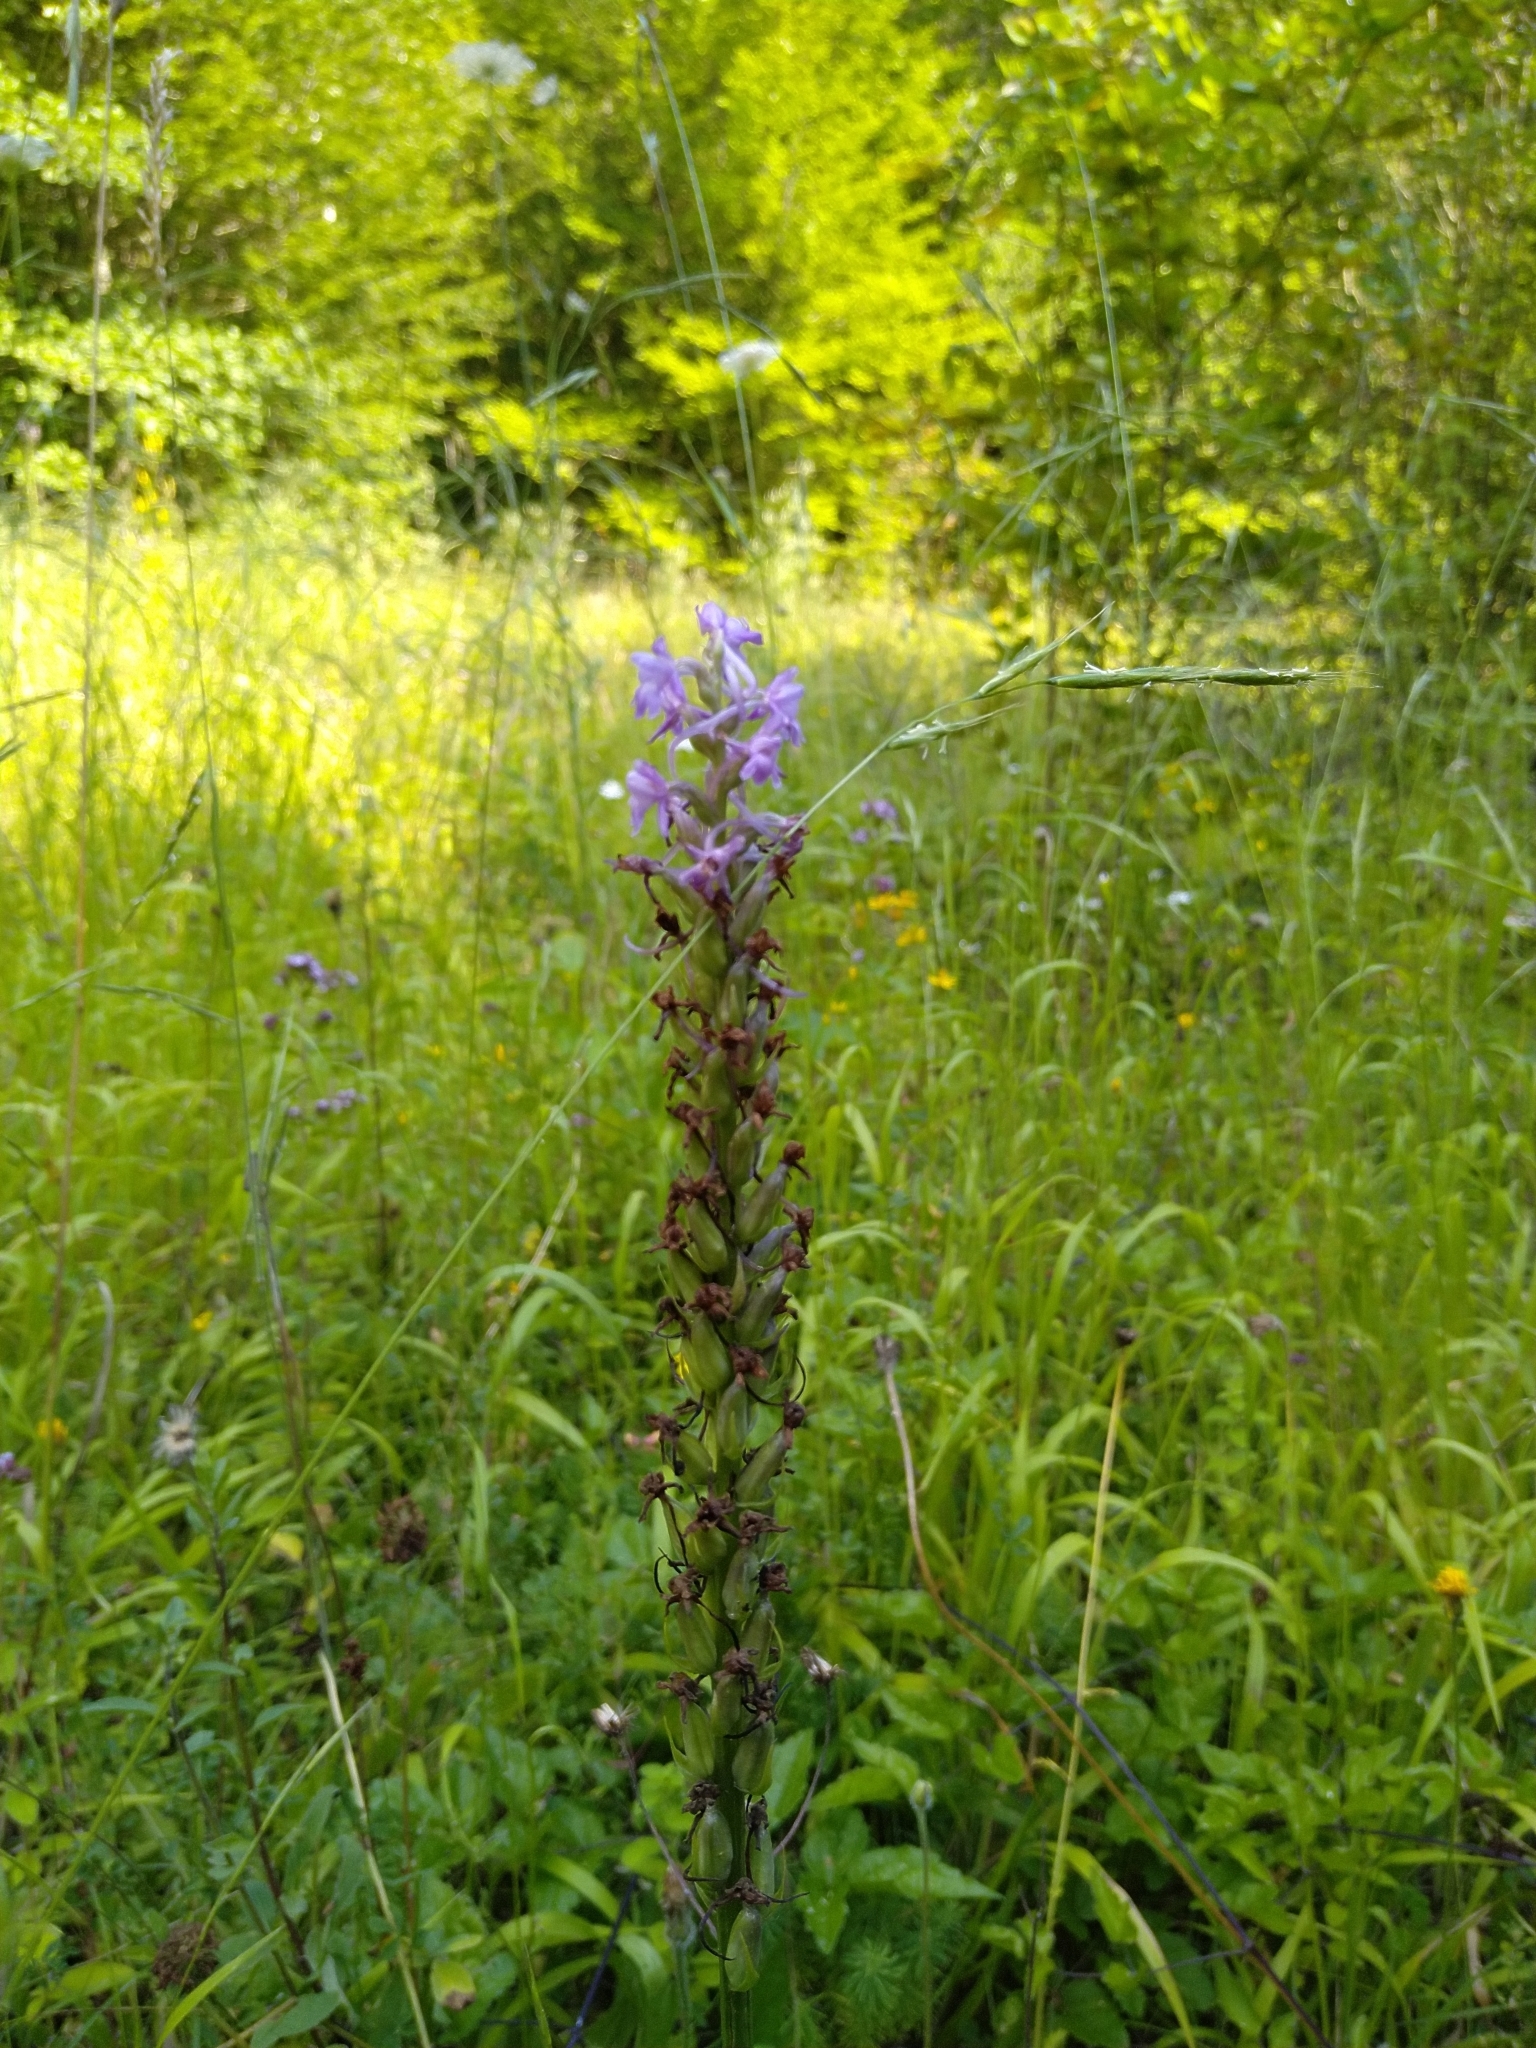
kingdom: Plantae
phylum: Tracheophyta
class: Liliopsida
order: Asparagales
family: Orchidaceae
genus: Gymnadenia
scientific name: Gymnadenia conopsea
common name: Fragrant orchid
